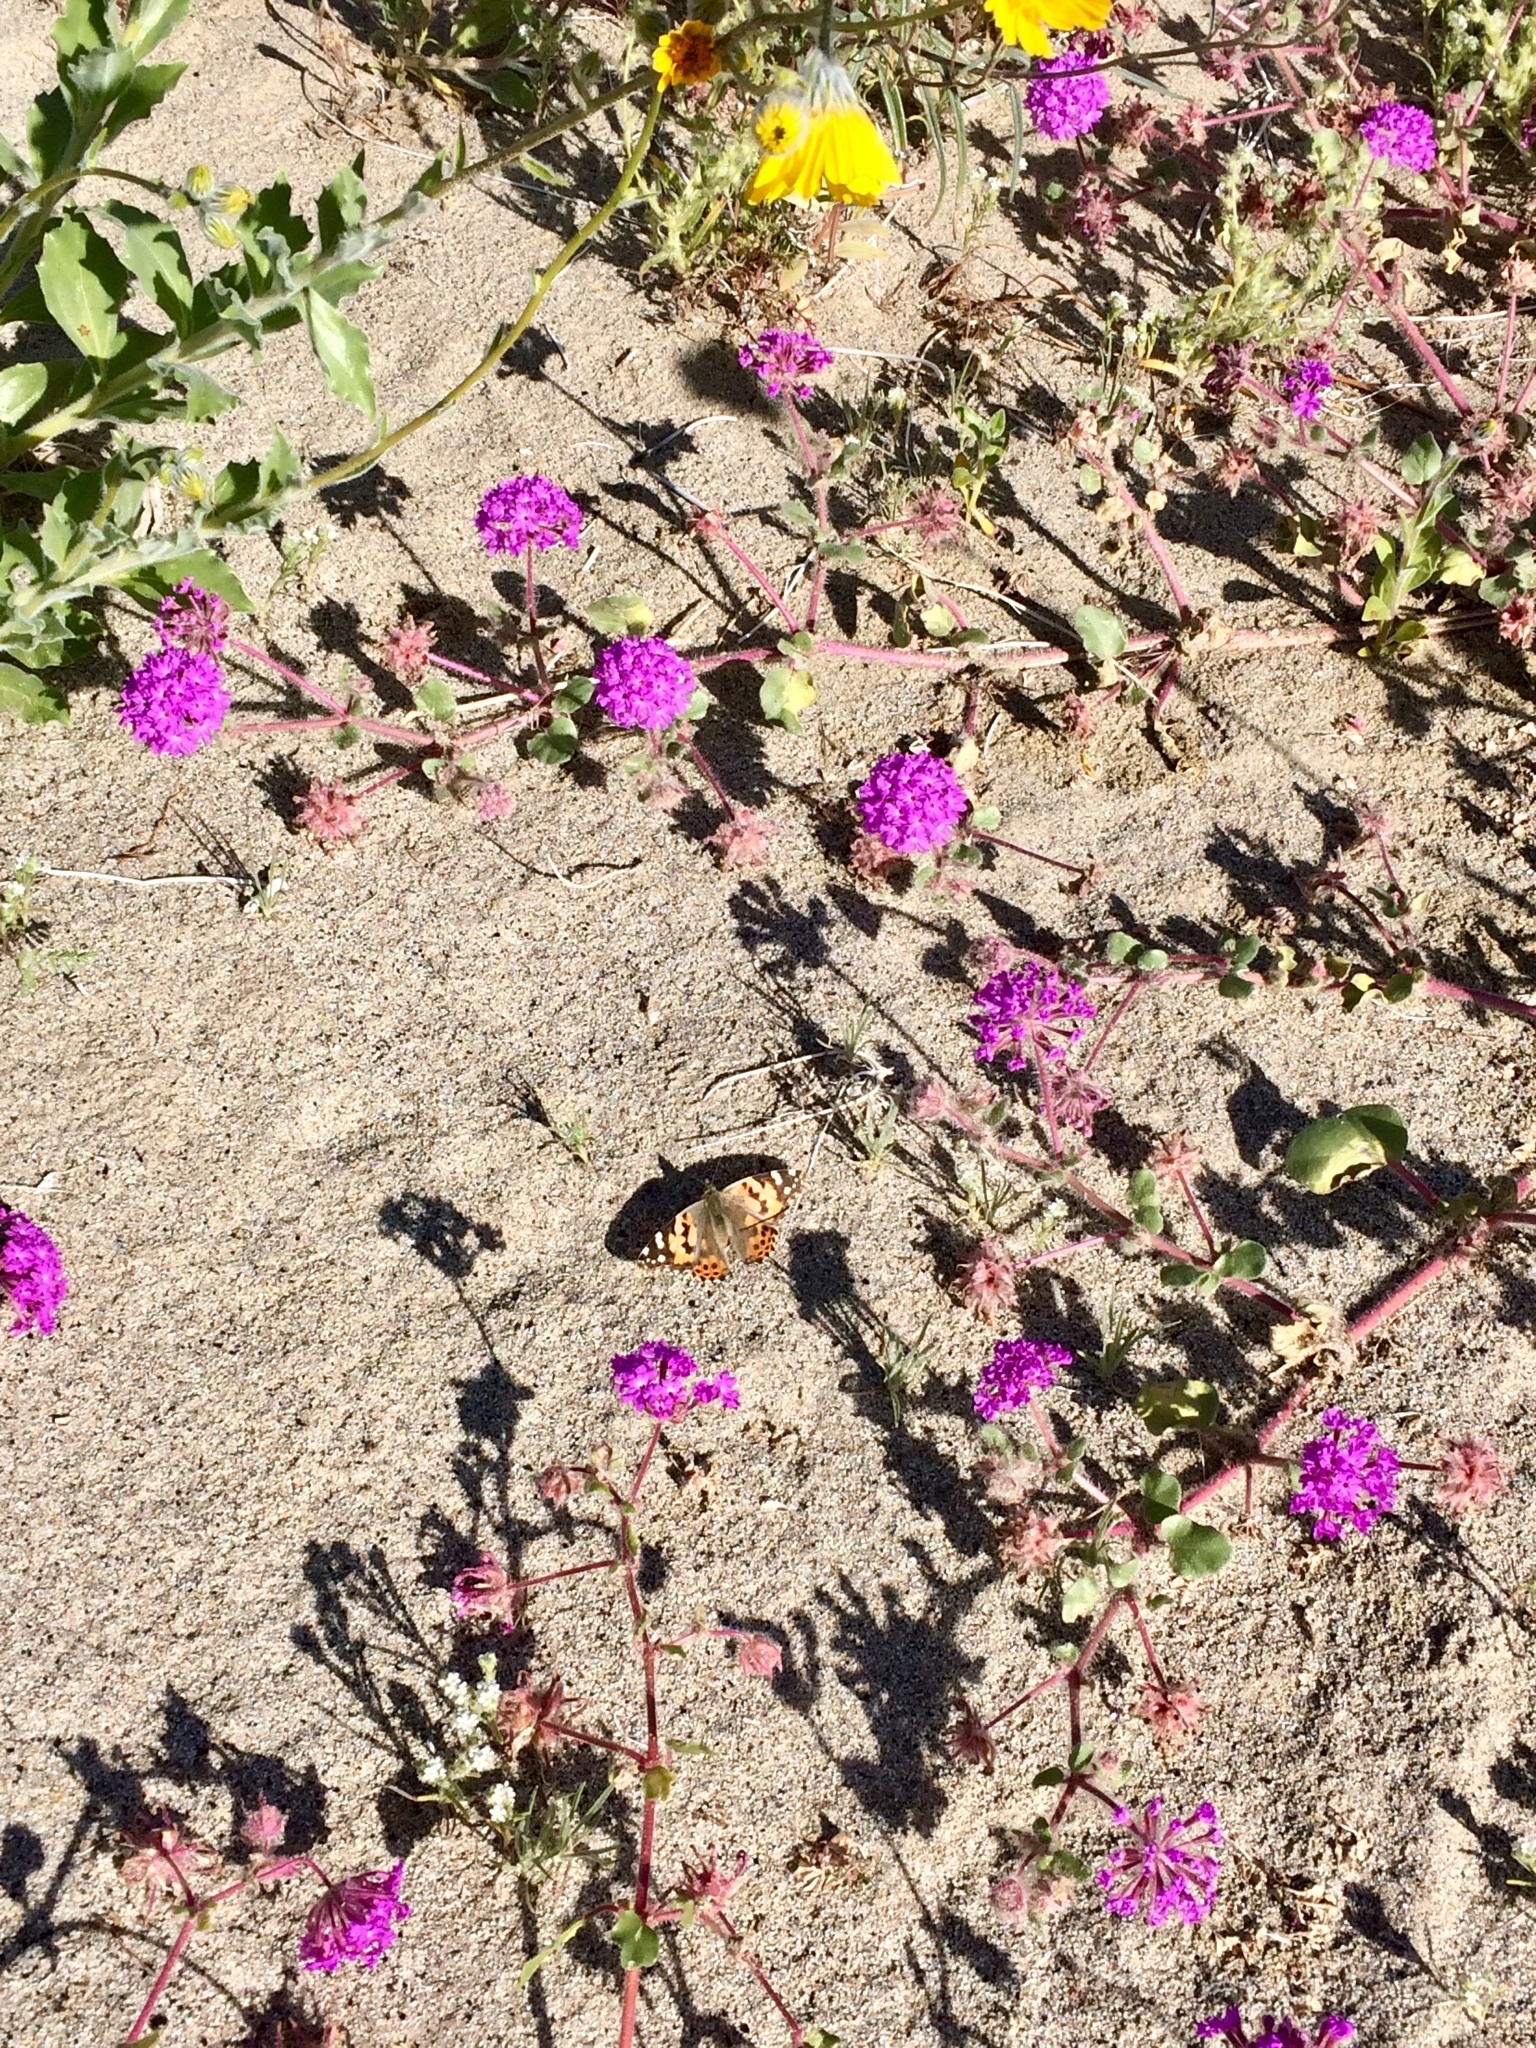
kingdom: Animalia
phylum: Arthropoda
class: Insecta
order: Lepidoptera
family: Nymphalidae
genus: Vanessa
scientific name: Vanessa cardui
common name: Painted lady
